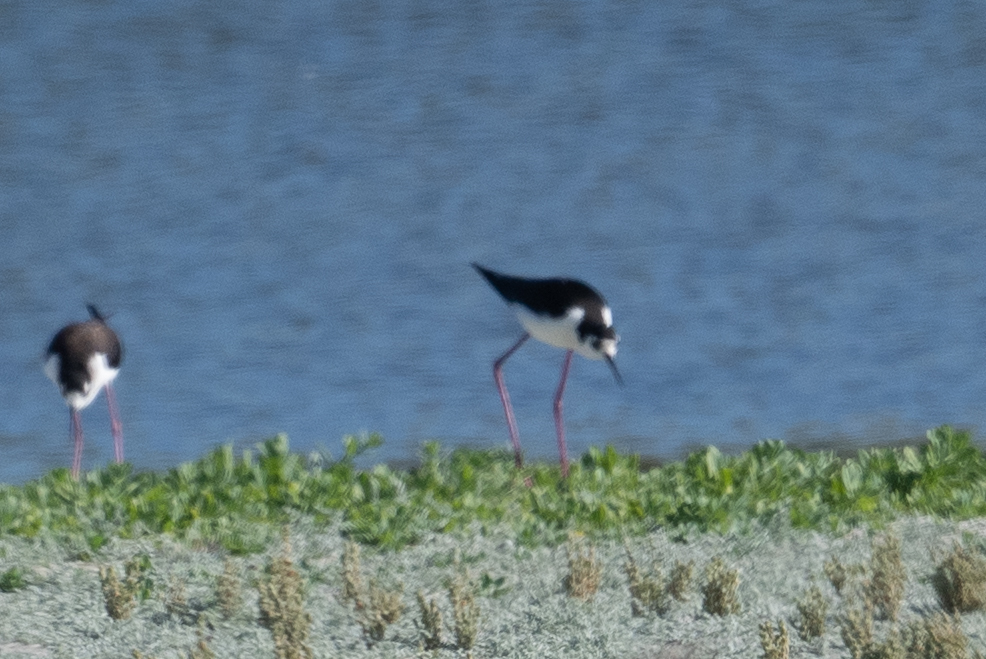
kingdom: Animalia
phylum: Chordata
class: Aves
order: Charadriiformes
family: Recurvirostridae
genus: Himantopus
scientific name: Himantopus mexicanus
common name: Black-necked stilt
